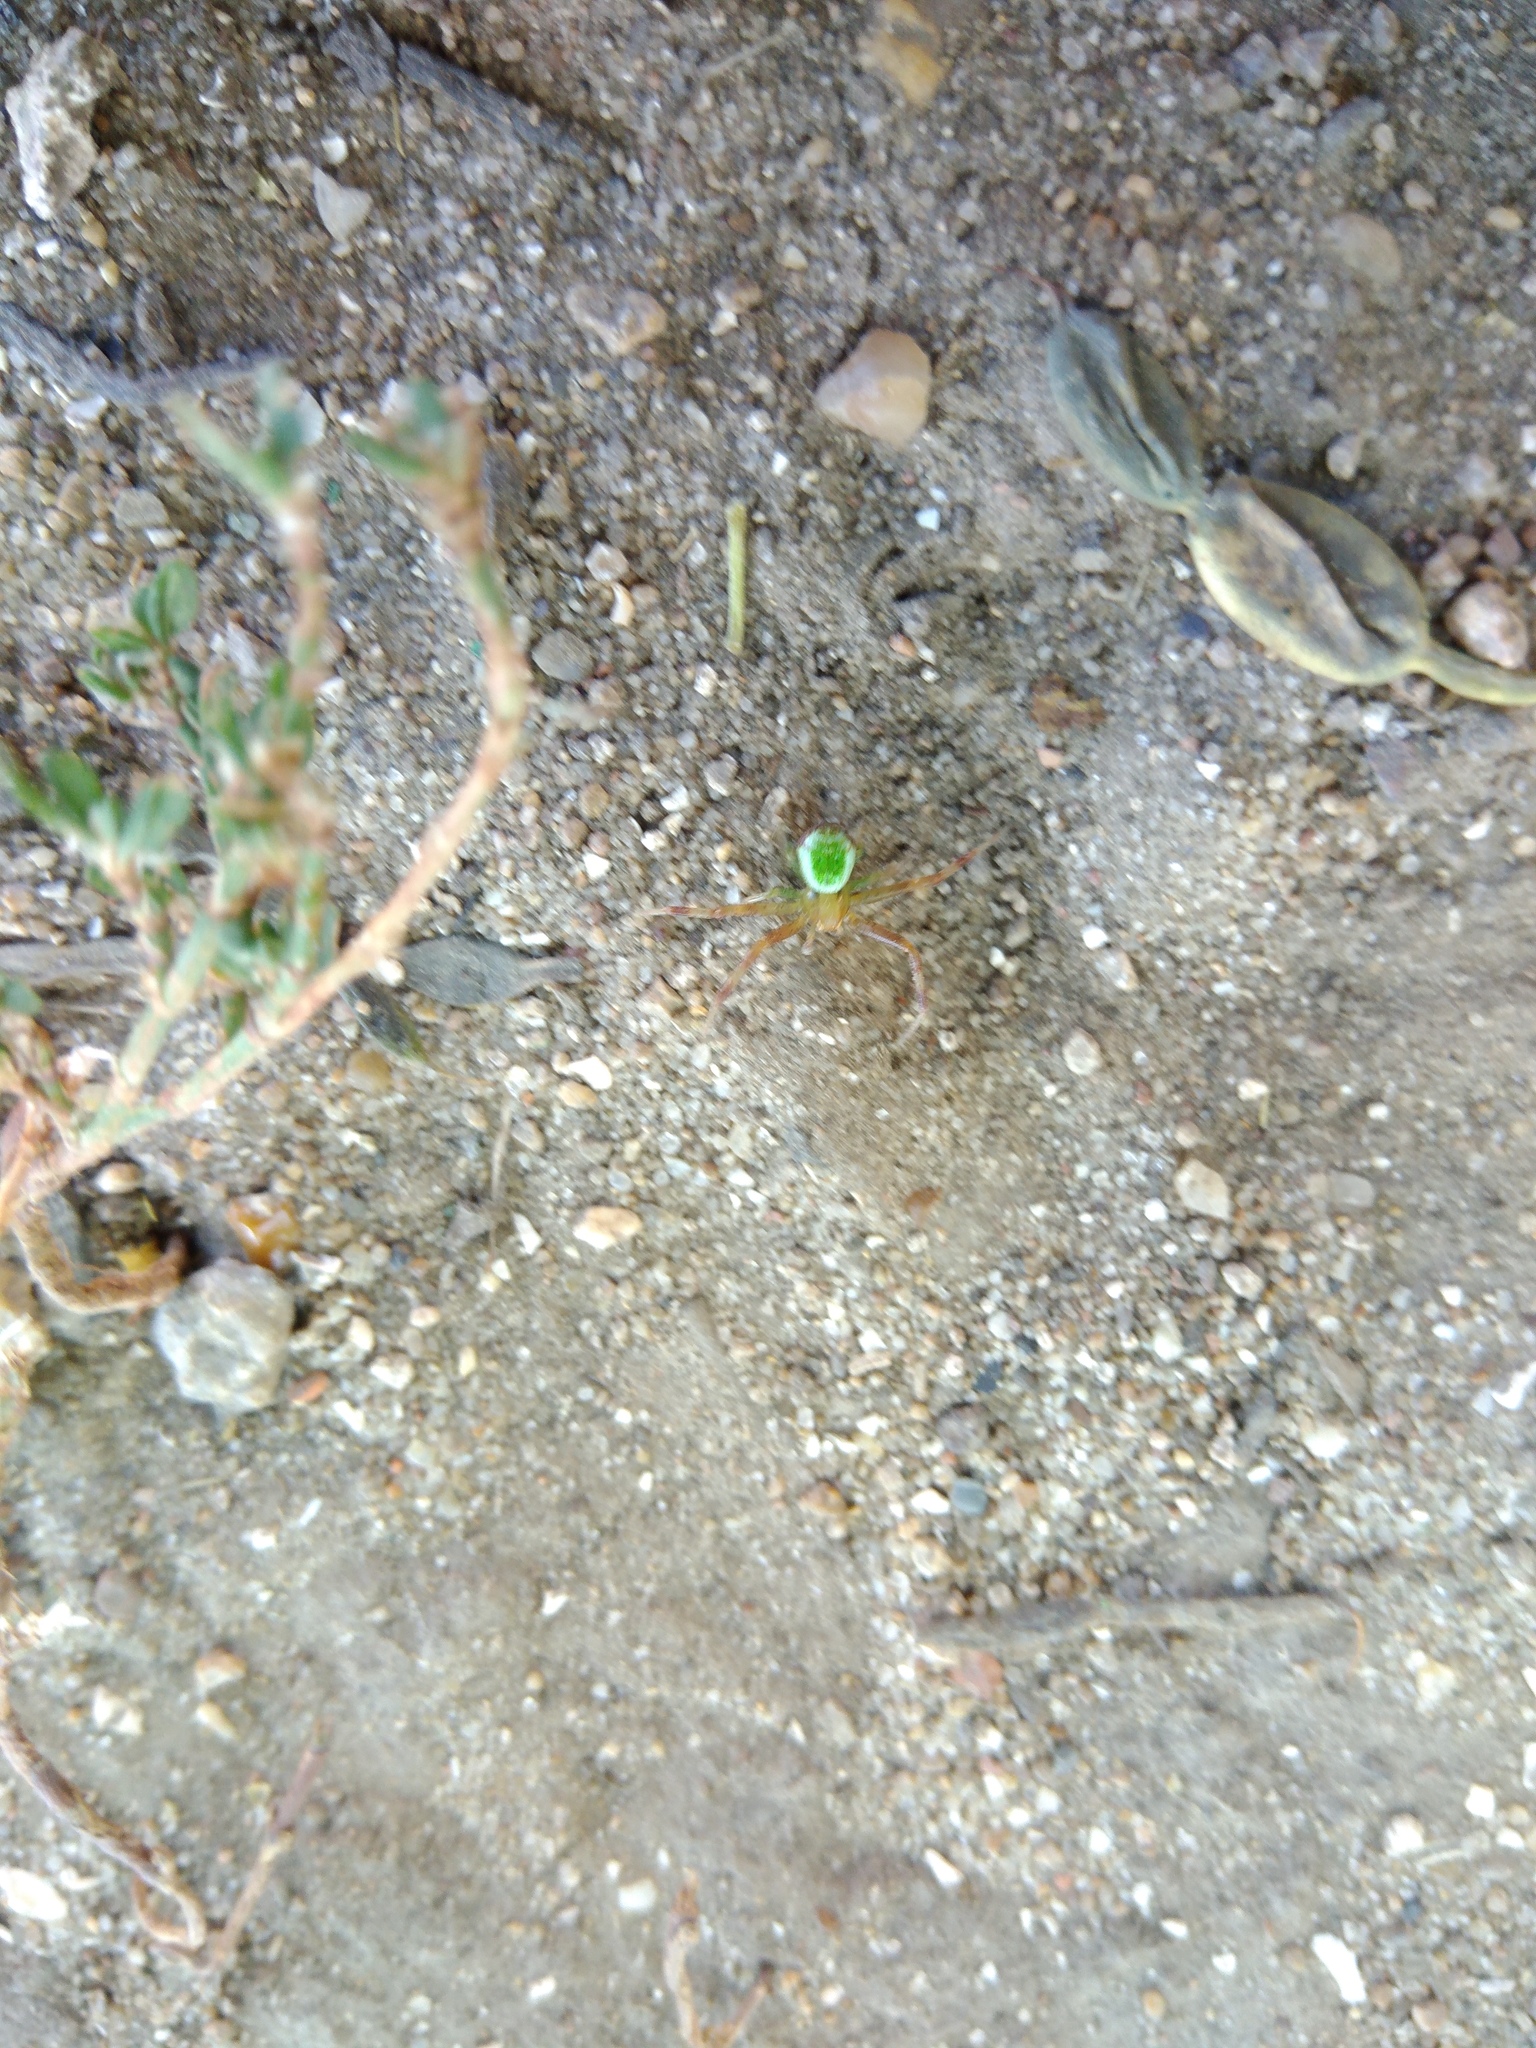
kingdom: Animalia
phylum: Arthropoda
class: Arachnida
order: Araneae
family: Thomisidae
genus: Ebrechtella
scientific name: Ebrechtella tricuspidata
